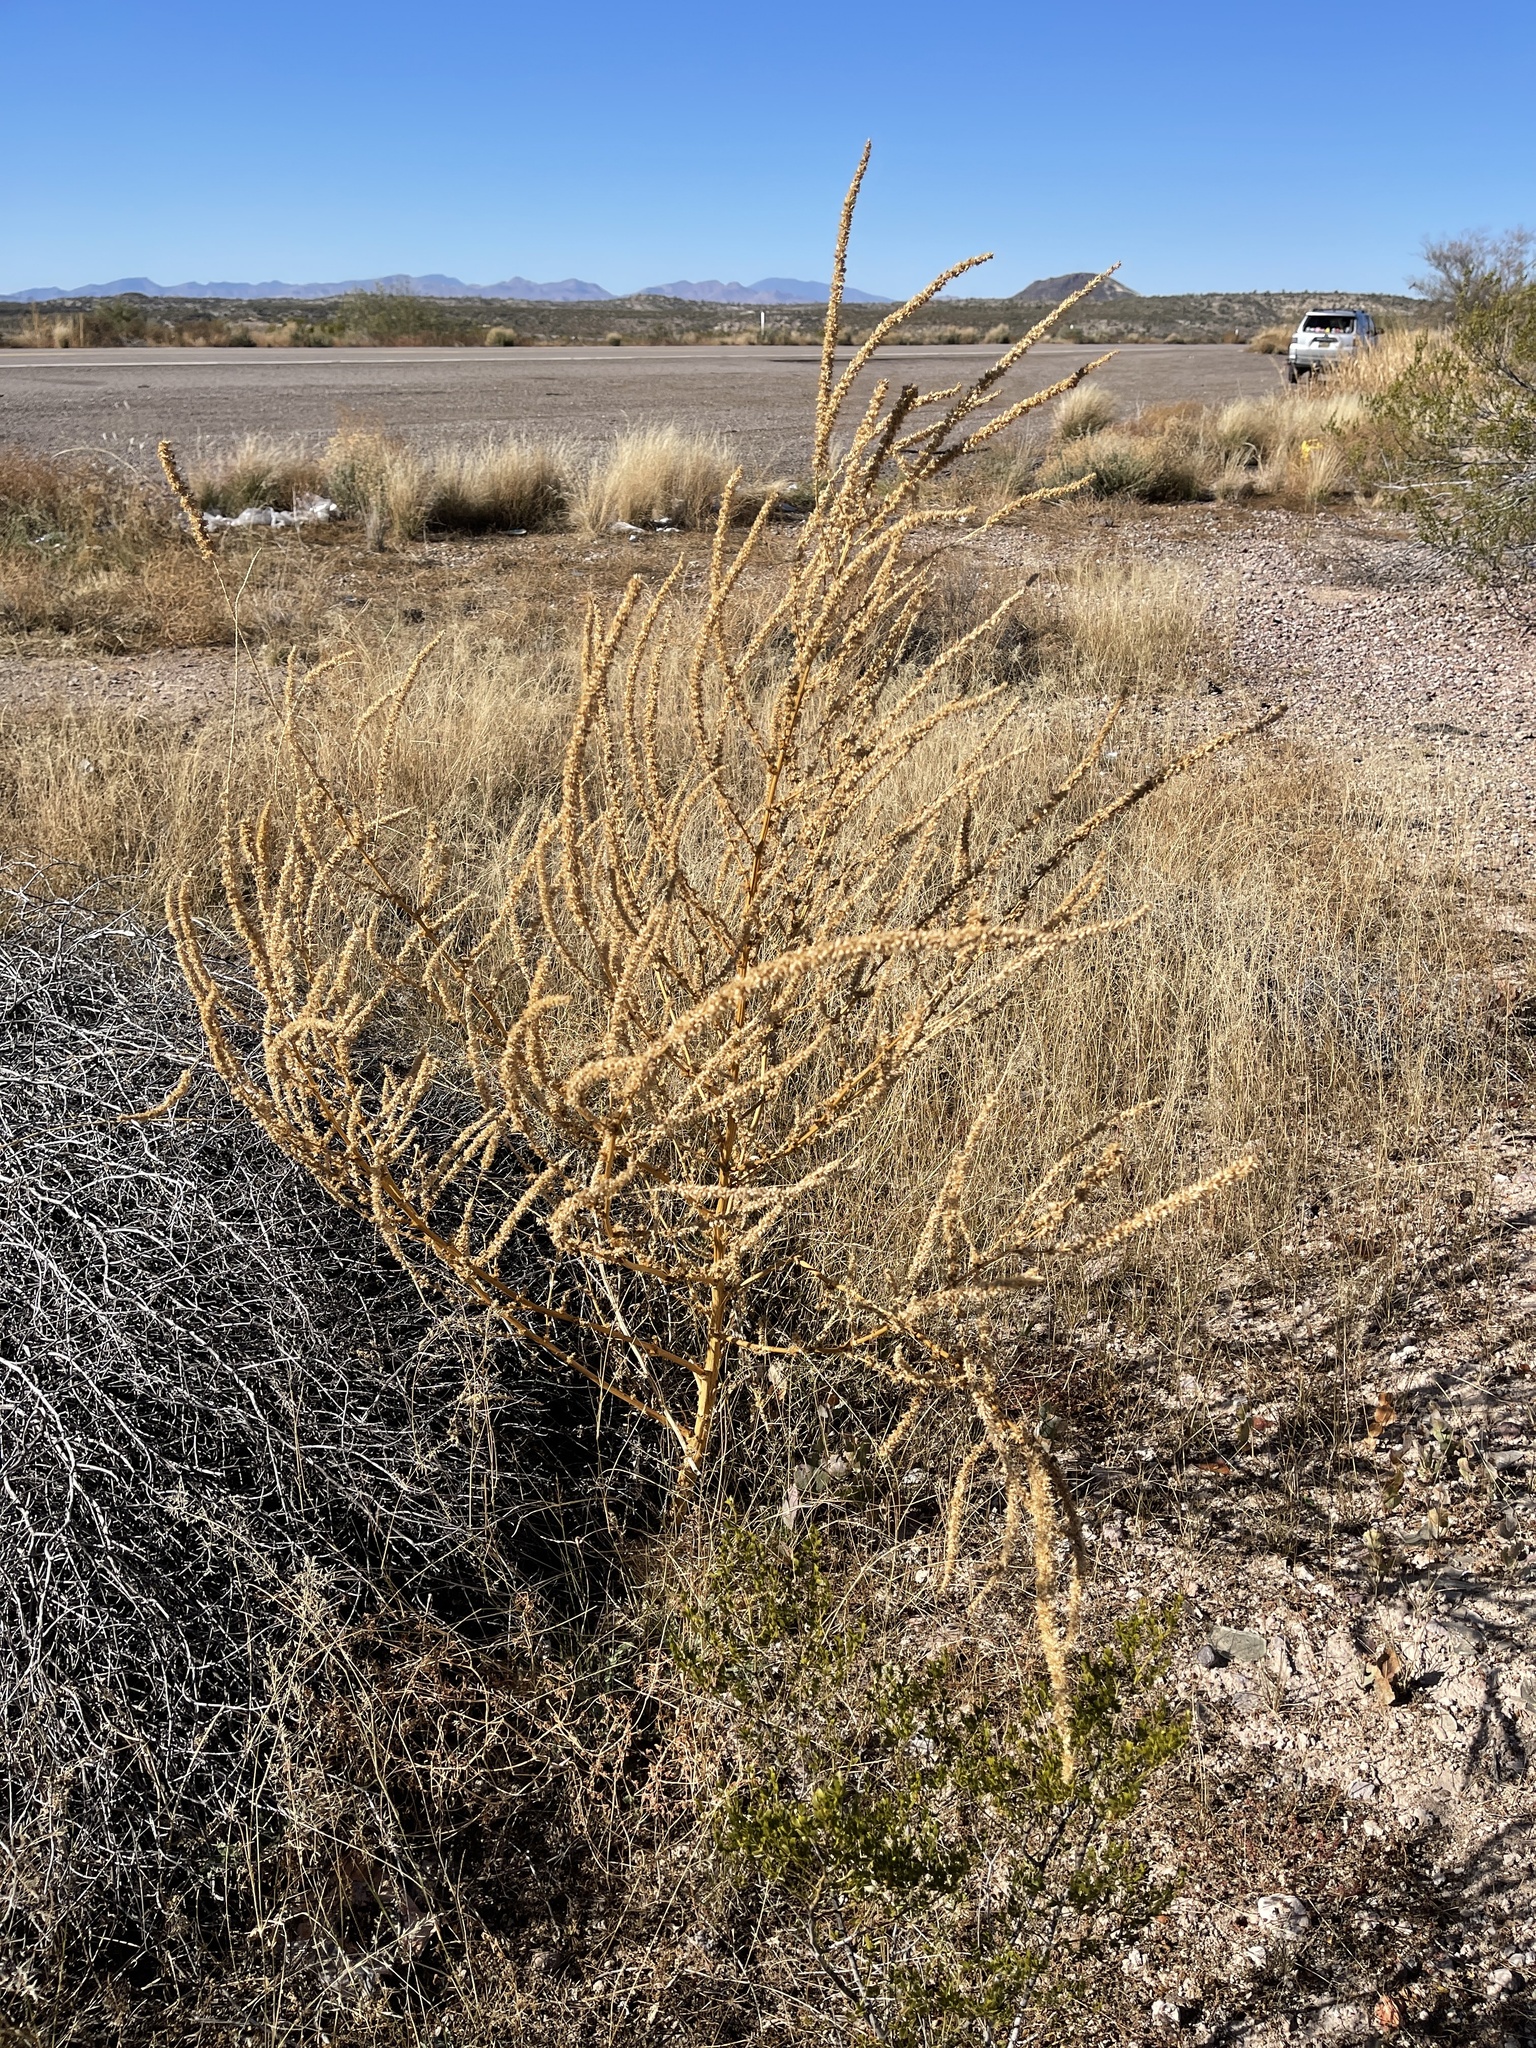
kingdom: Plantae
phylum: Tracheophyta
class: Magnoliopsida
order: Caryophyllales
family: Amaranthaceae
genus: Amaranthus
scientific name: Amaranthus palmeri
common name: Dioecious amaranth
